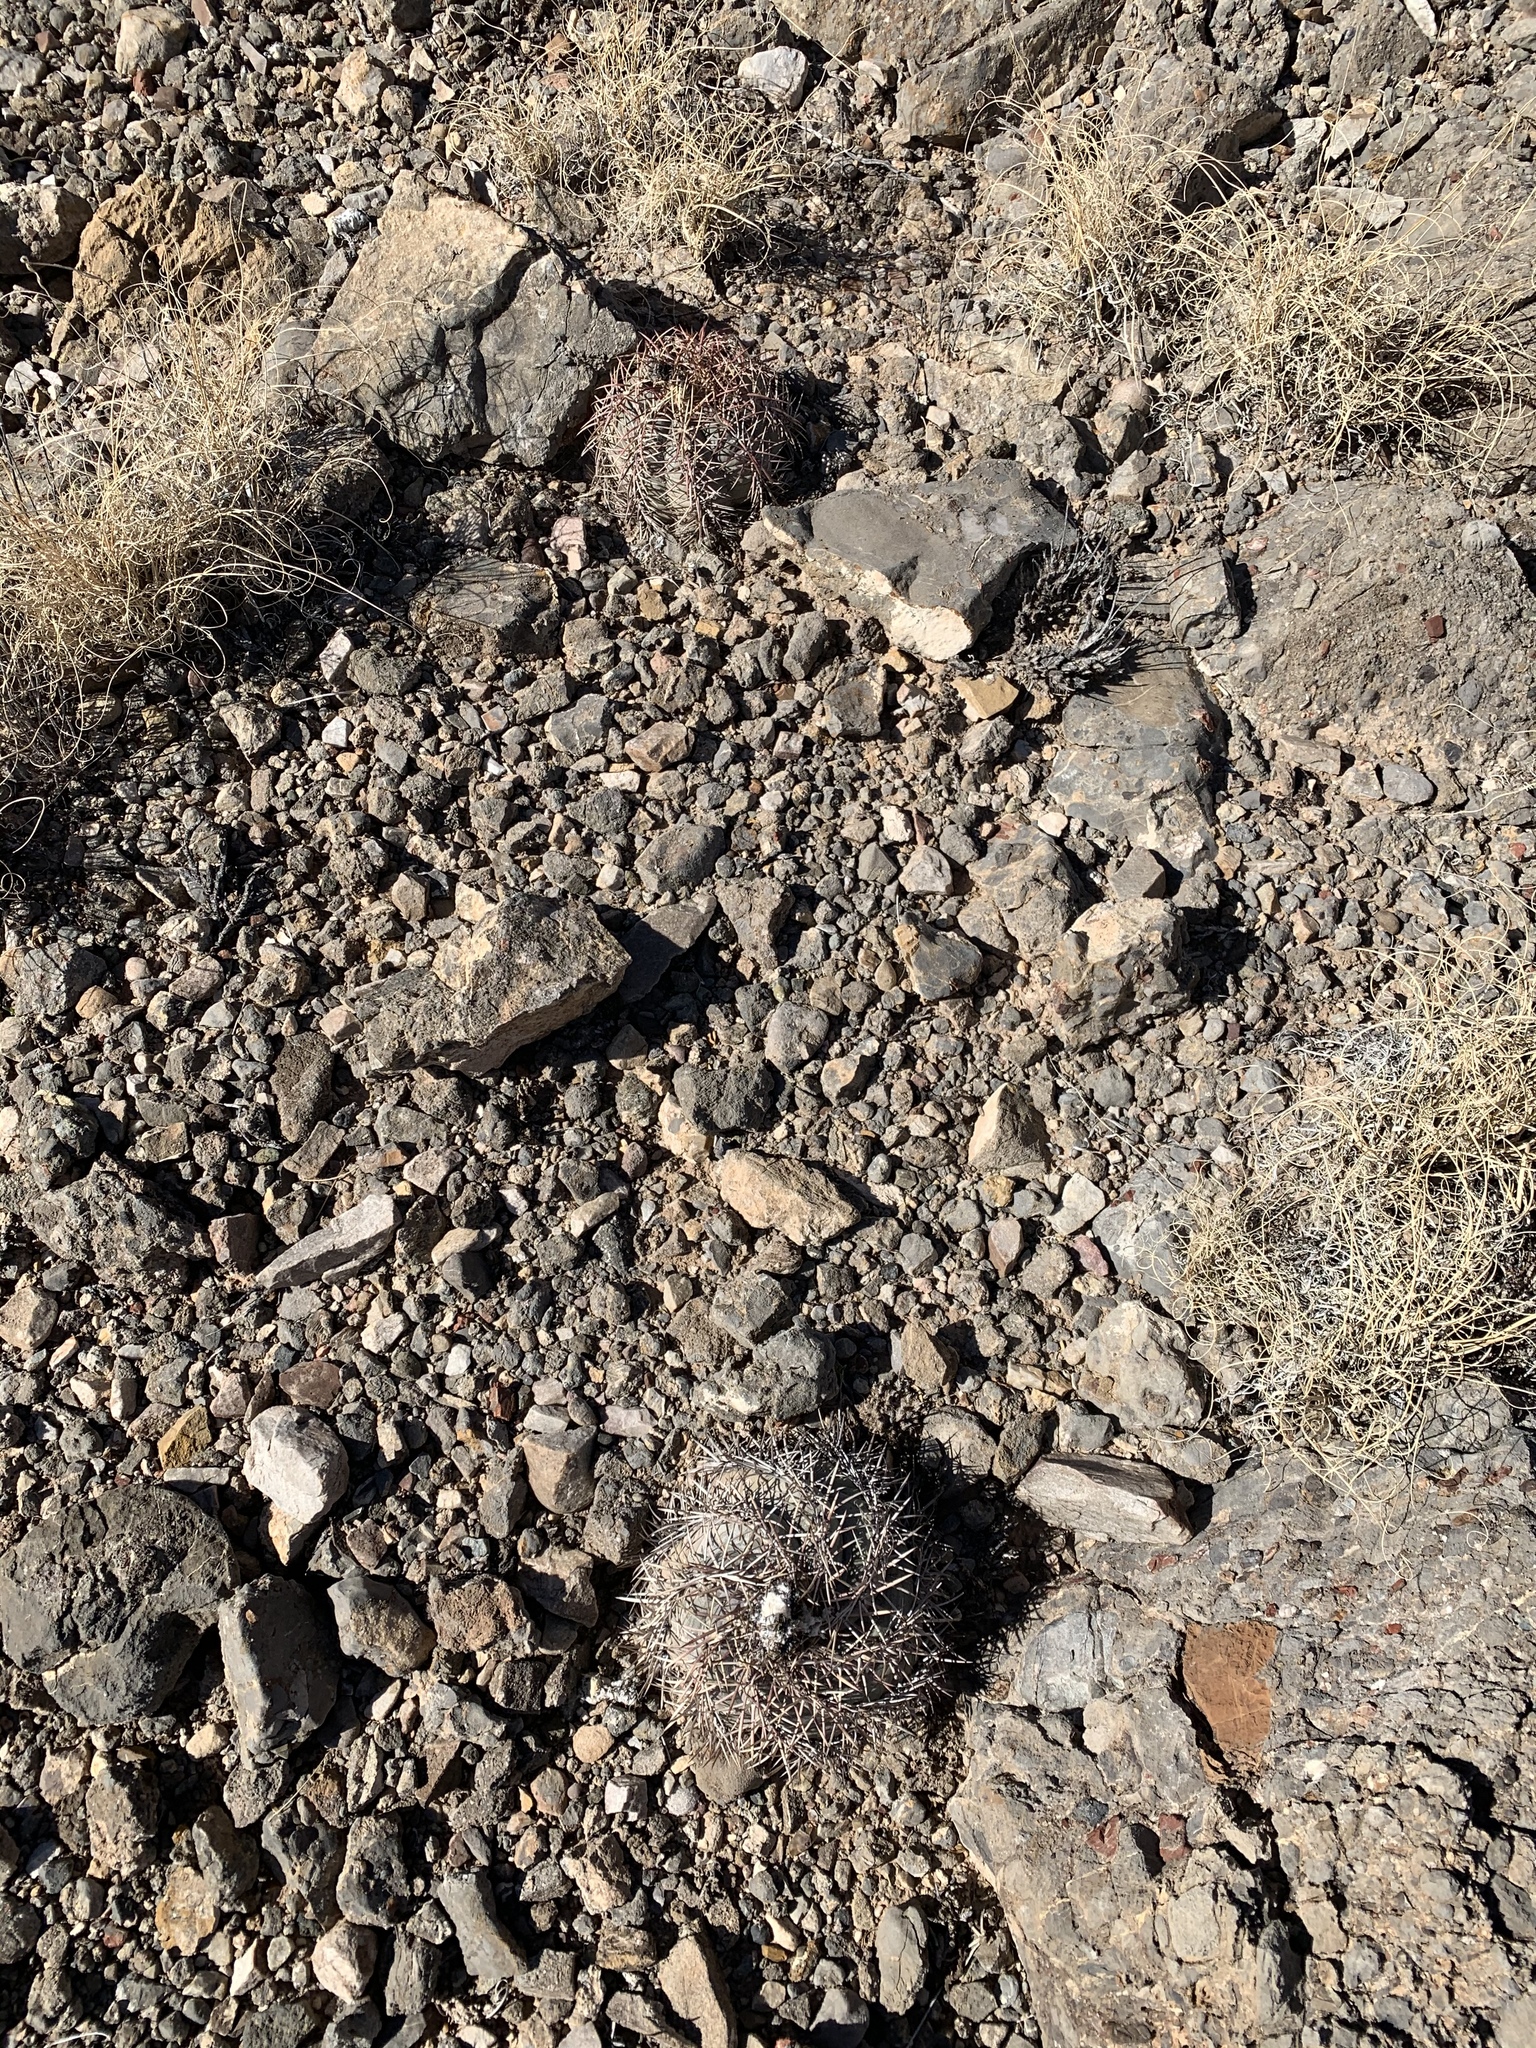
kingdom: Plantae
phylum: Tracheophyta
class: Magnoliopsida
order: Caryophyllales
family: Cactaceae
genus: Echinocactus
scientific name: Echinocactus horizonthalonius
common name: Devilshead
